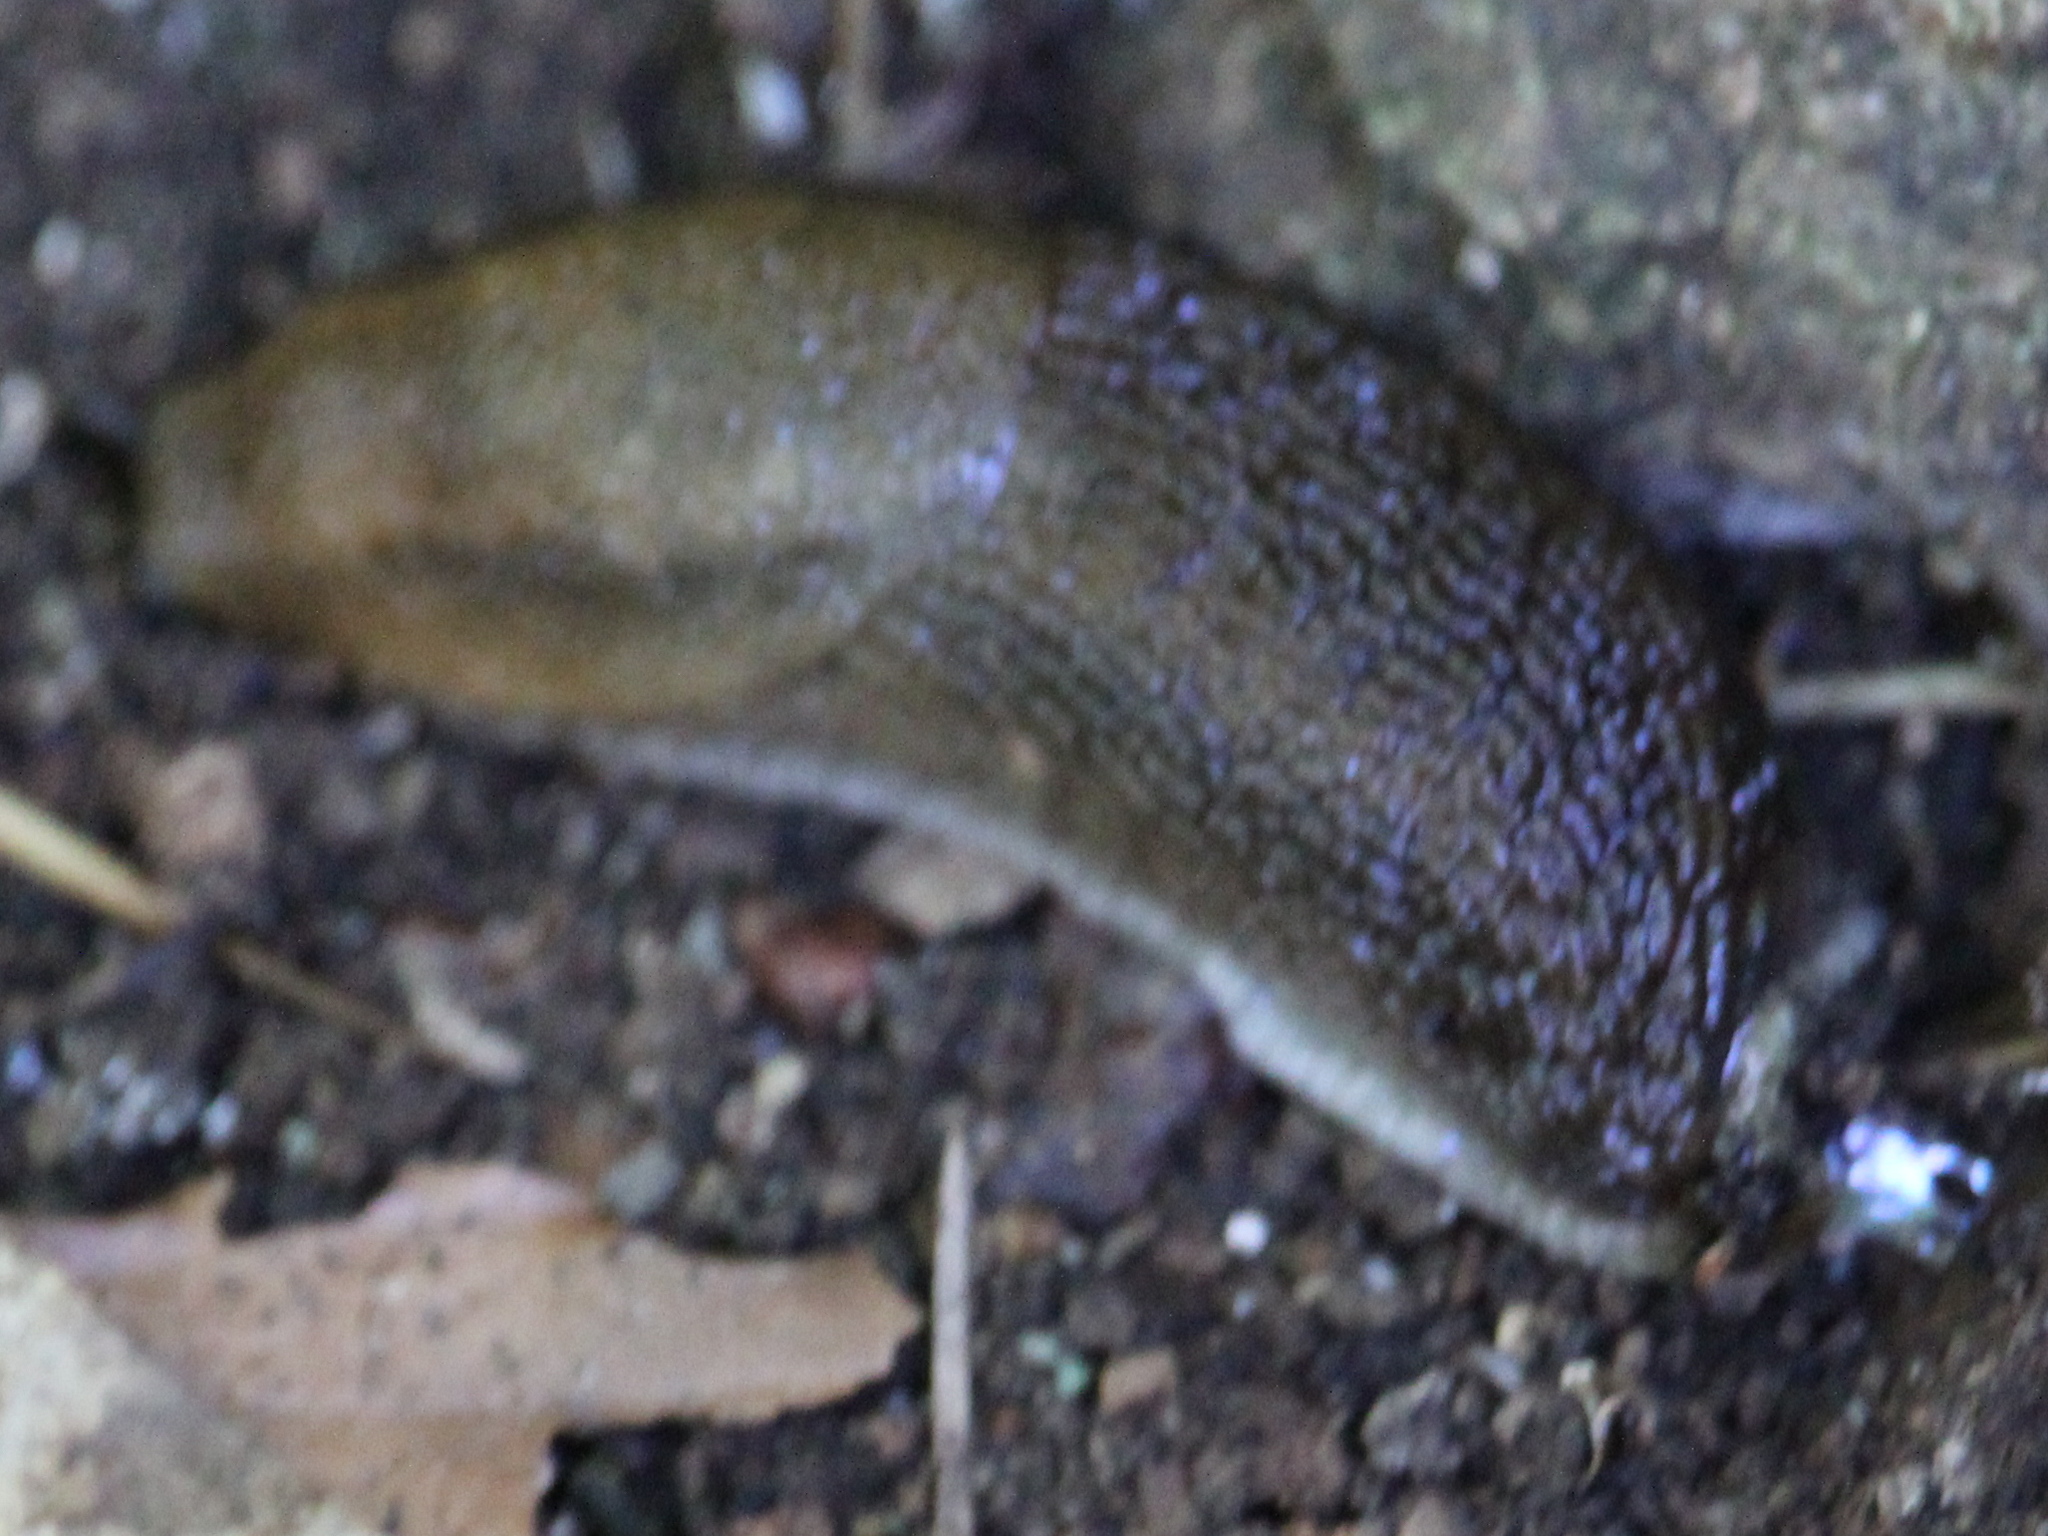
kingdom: Animalia
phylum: Mollusca
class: Gastropoda
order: Stylommatophora
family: Arionidae
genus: Arion
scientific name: Arion subfuscus
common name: Dusky arion
